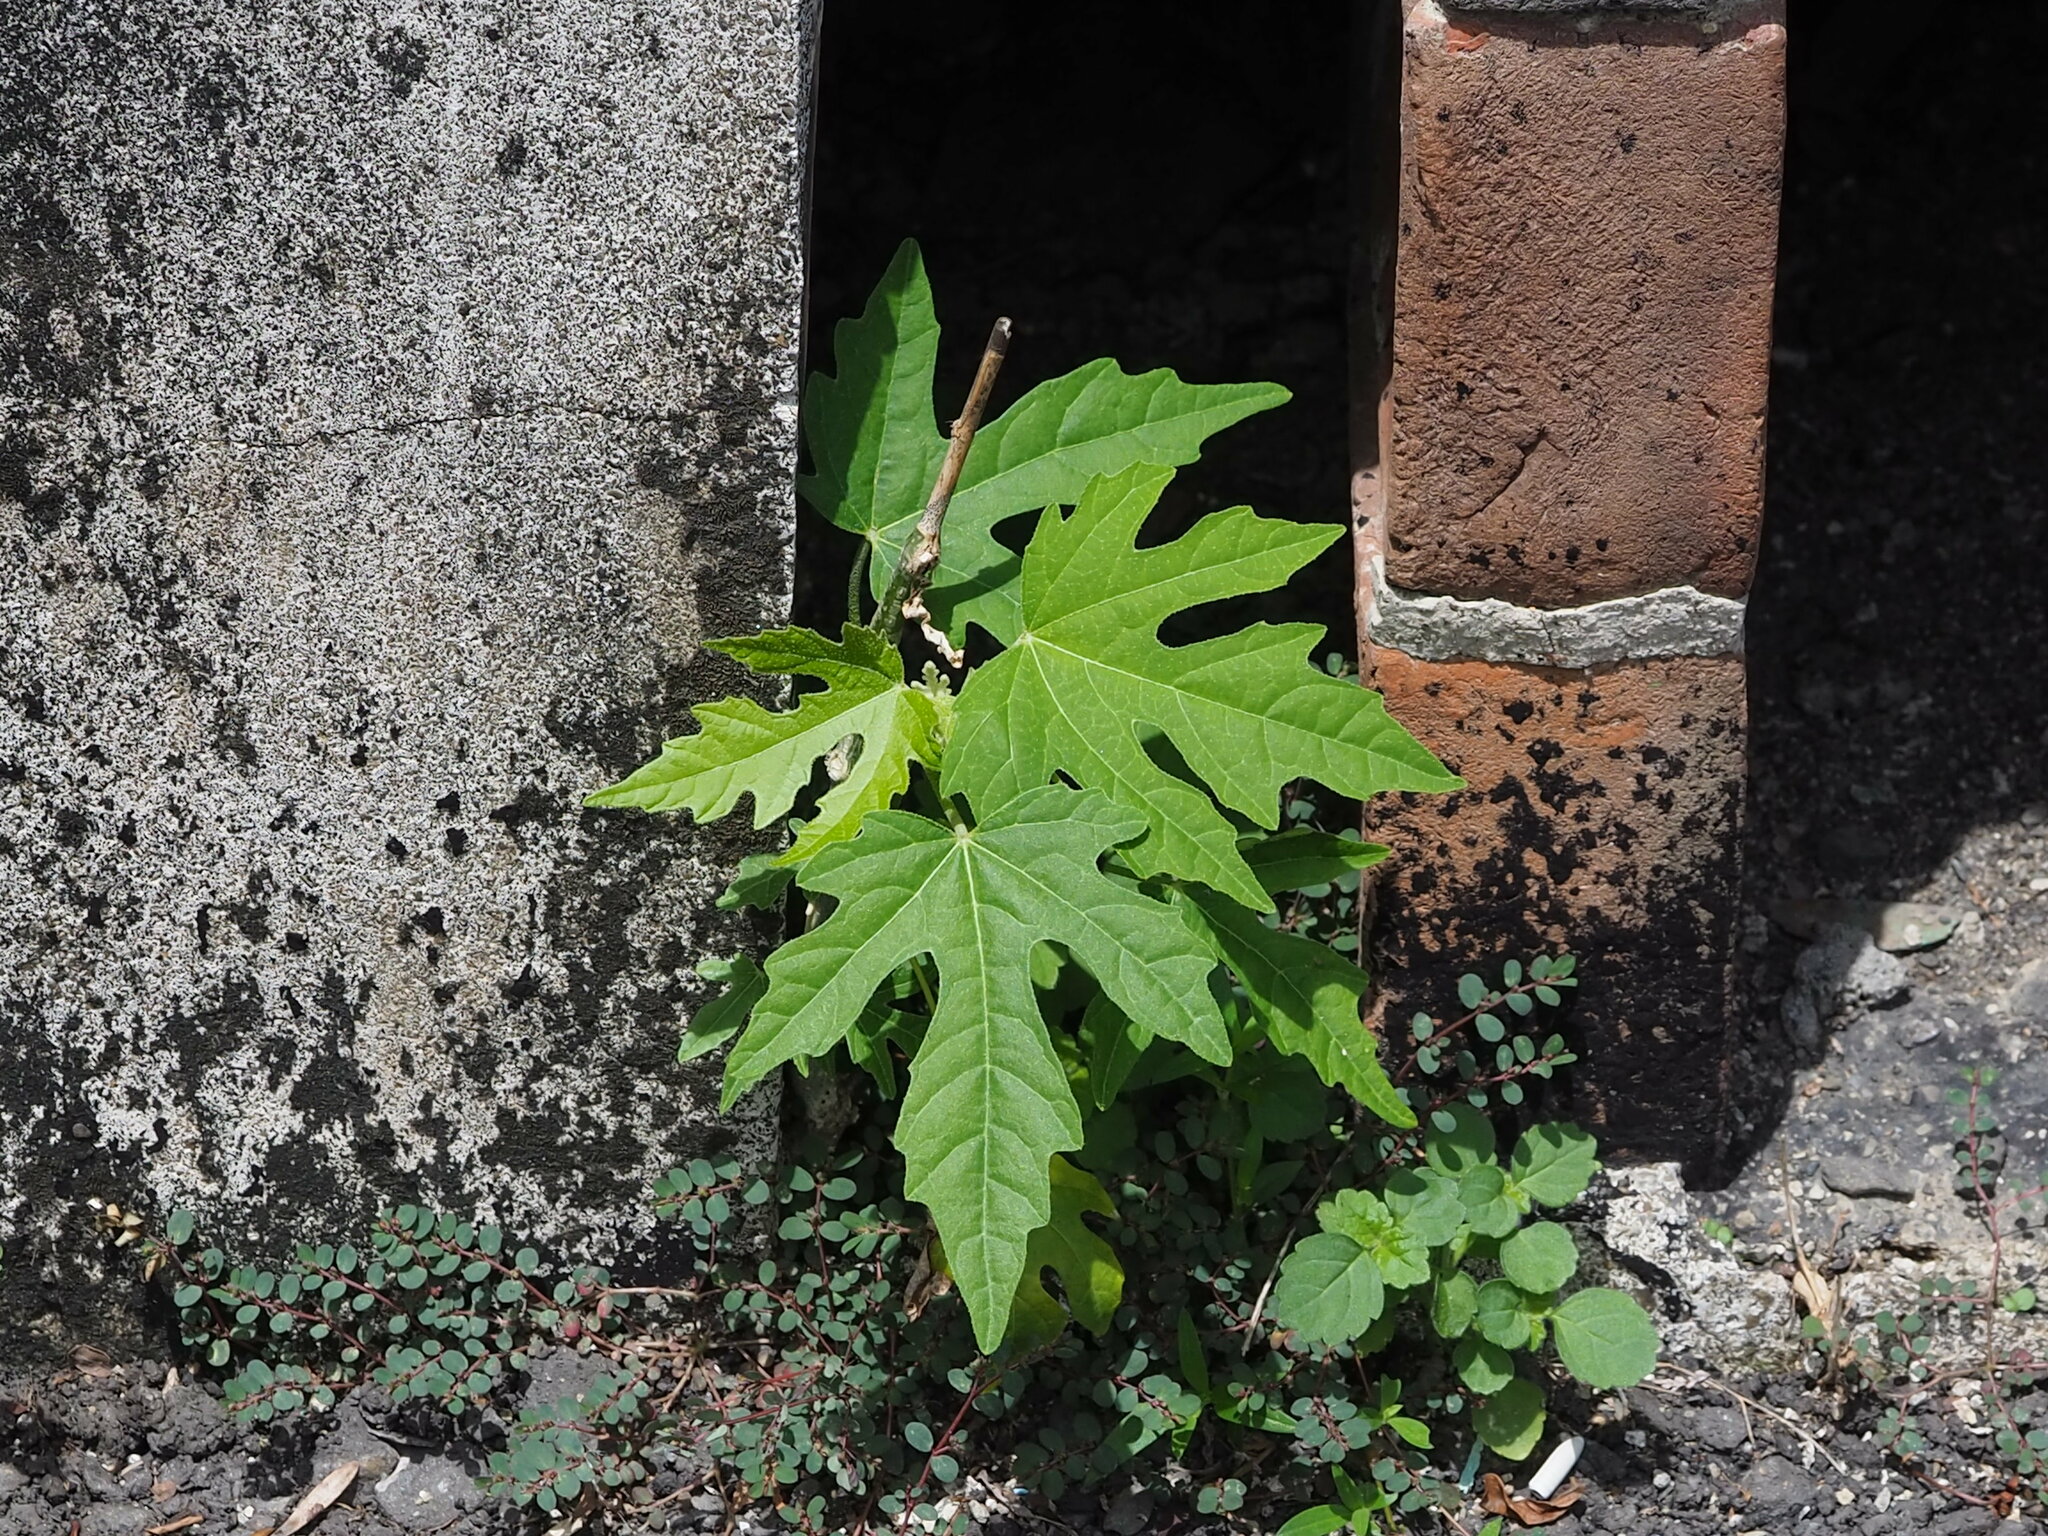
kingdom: Plantae
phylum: Tracheophyta
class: Magnoliopsida
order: Malpighiales
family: Euphorbiaceae
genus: Melanolepis
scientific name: Melanolepis multiglandulosa
